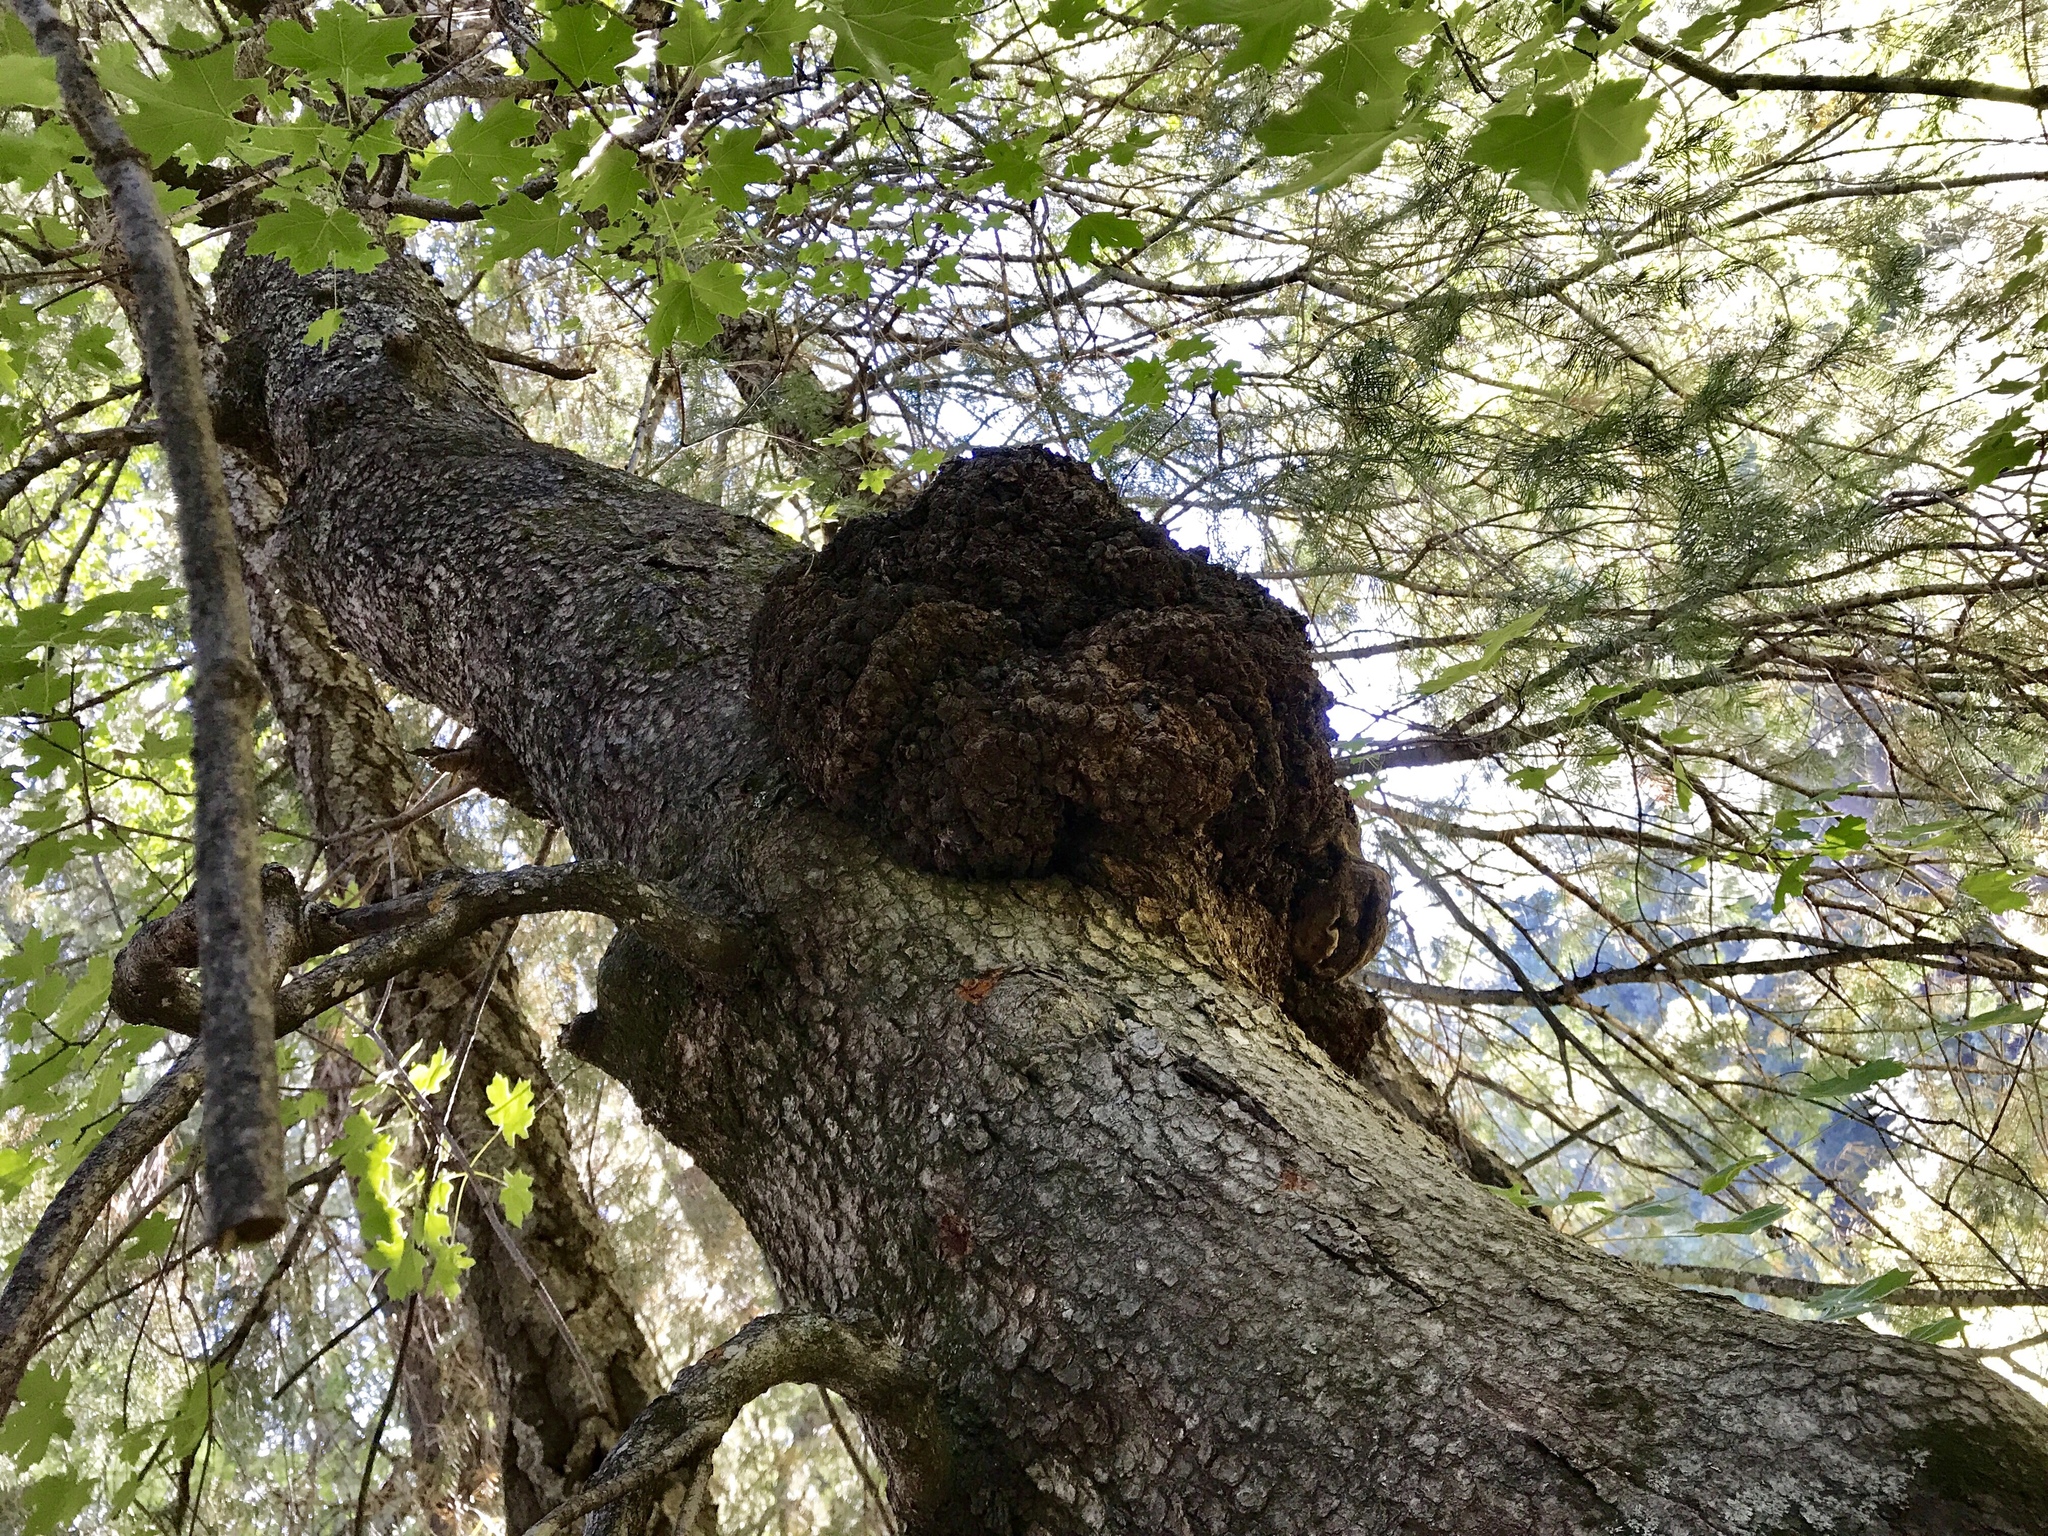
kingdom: Plantae
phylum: Tracheophyta
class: Magnoliopsida
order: Sapindales
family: Sapindaceae
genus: Acer
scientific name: Acer grandidentatum
